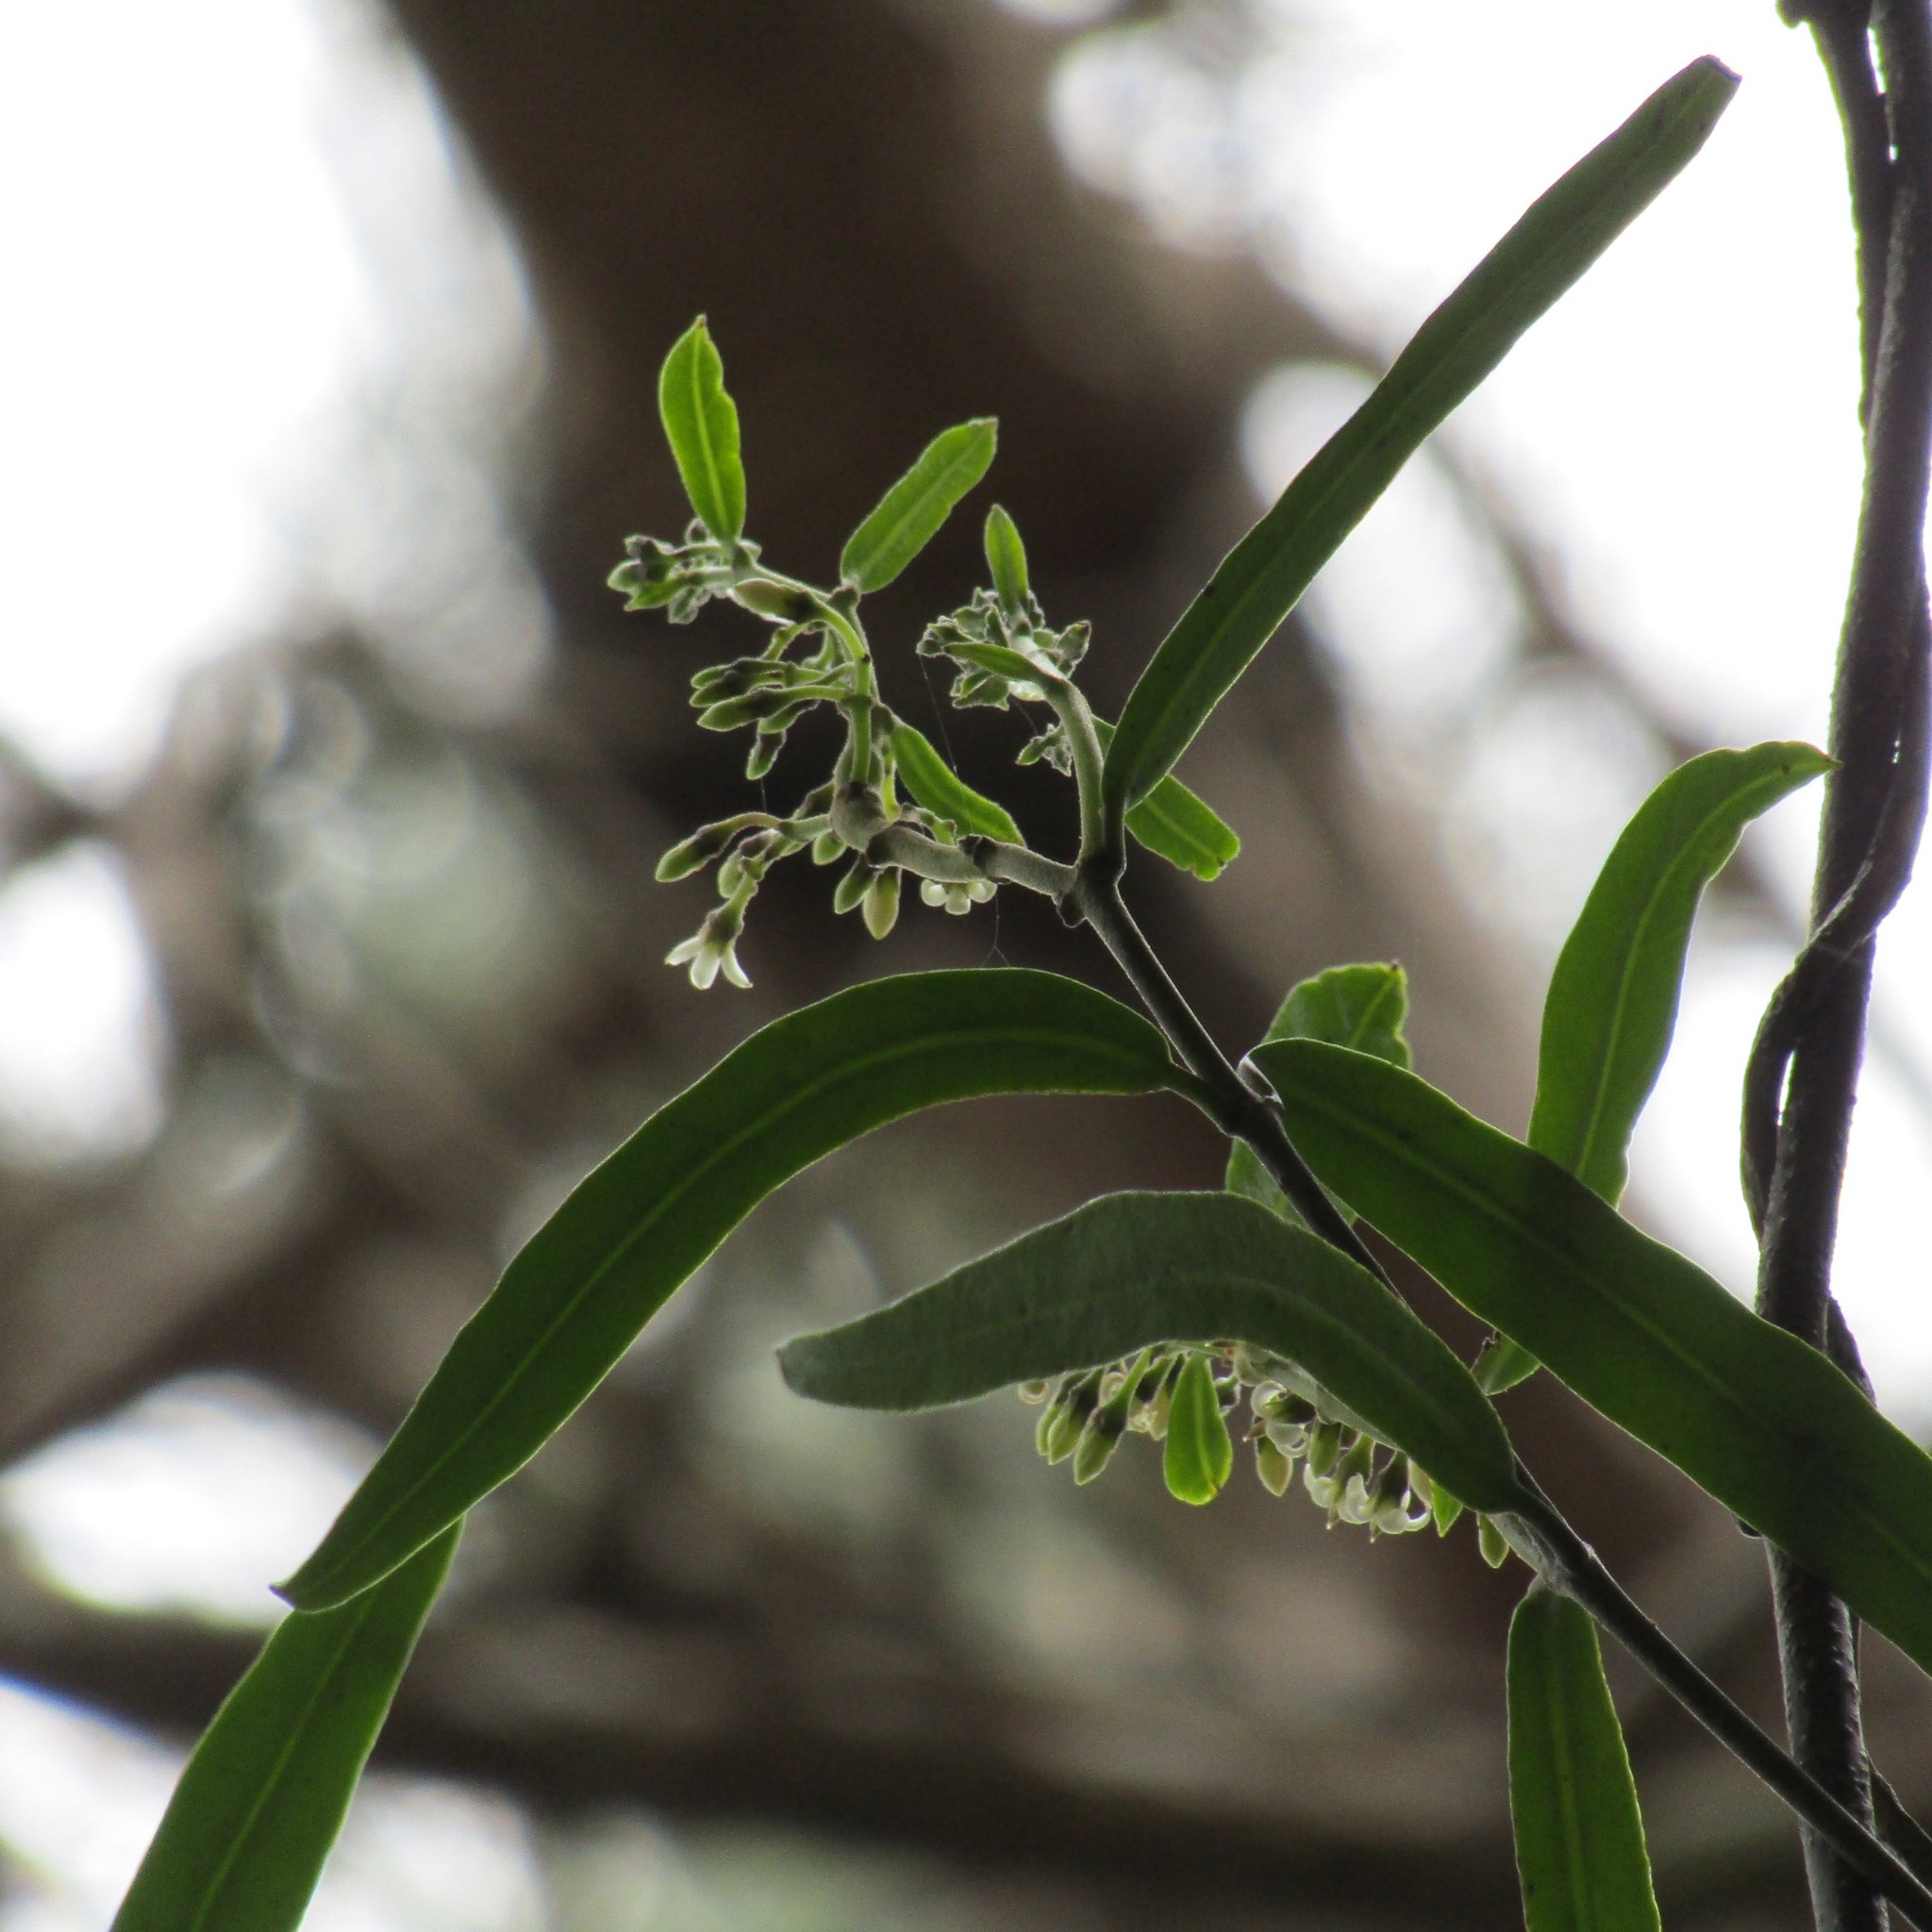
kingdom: Plantae
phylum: Tracheophyta
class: Magnoliopsida
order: Gentianales
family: Apocynaceae
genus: Parsonsia
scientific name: Parsonsia heterophylla
